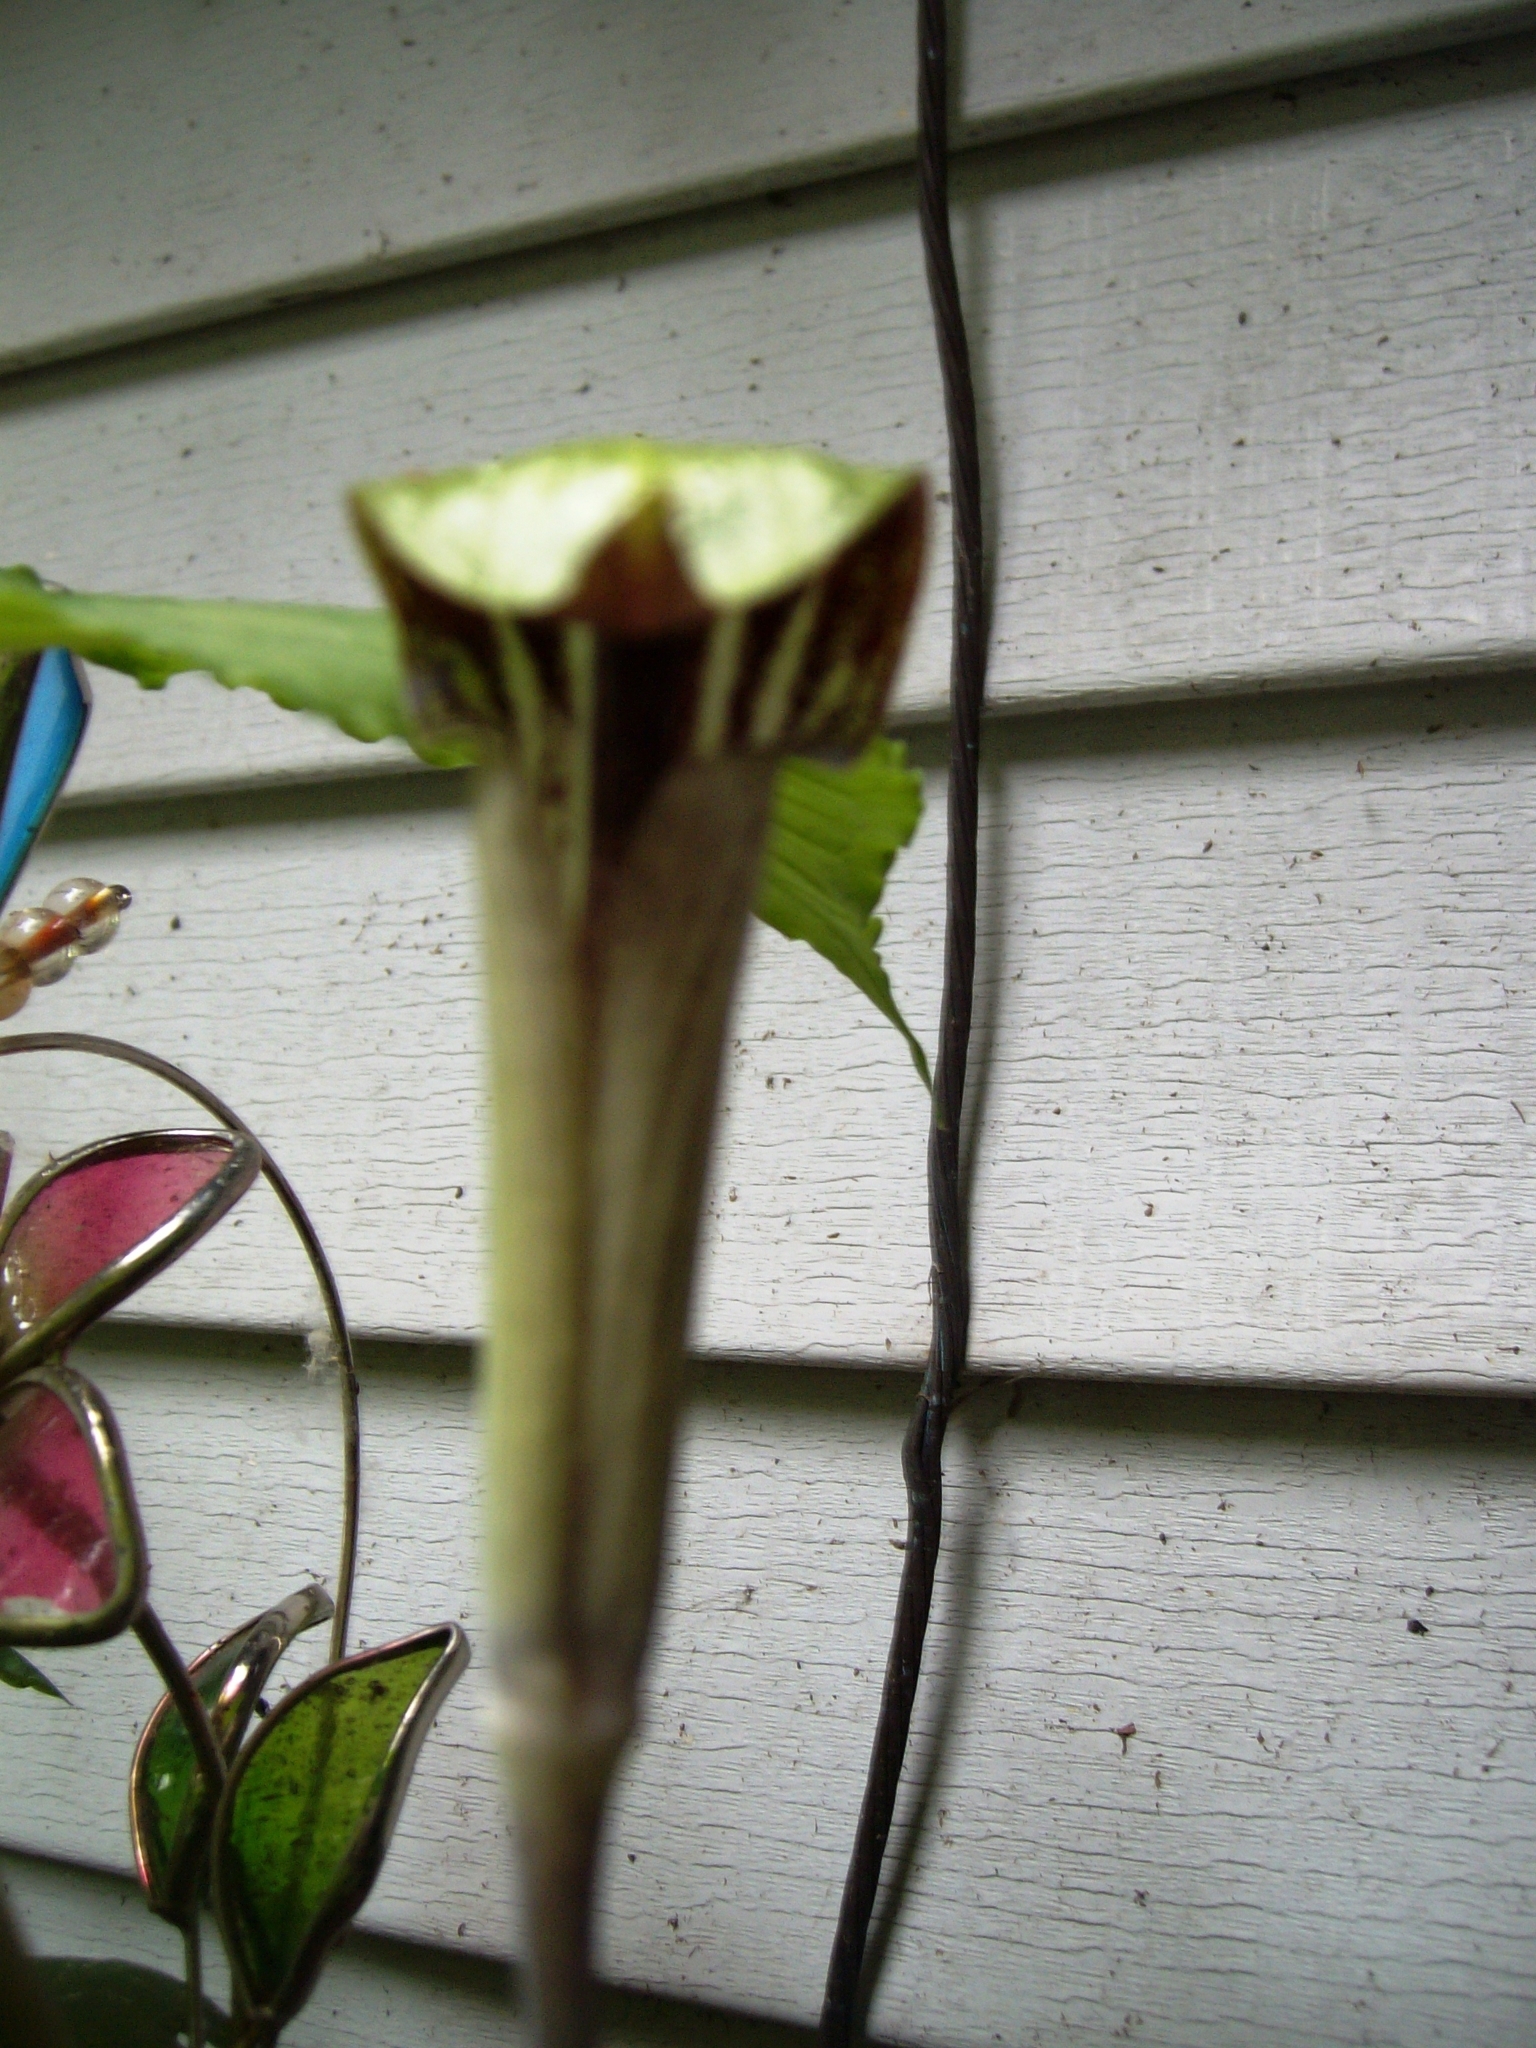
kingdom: Plantae
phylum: Tracheophyta
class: Liliopsida
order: Alismatales
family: Araceae
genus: Arisaema
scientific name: Arisaema triphyllum
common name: Jack-in-the-pulpit
